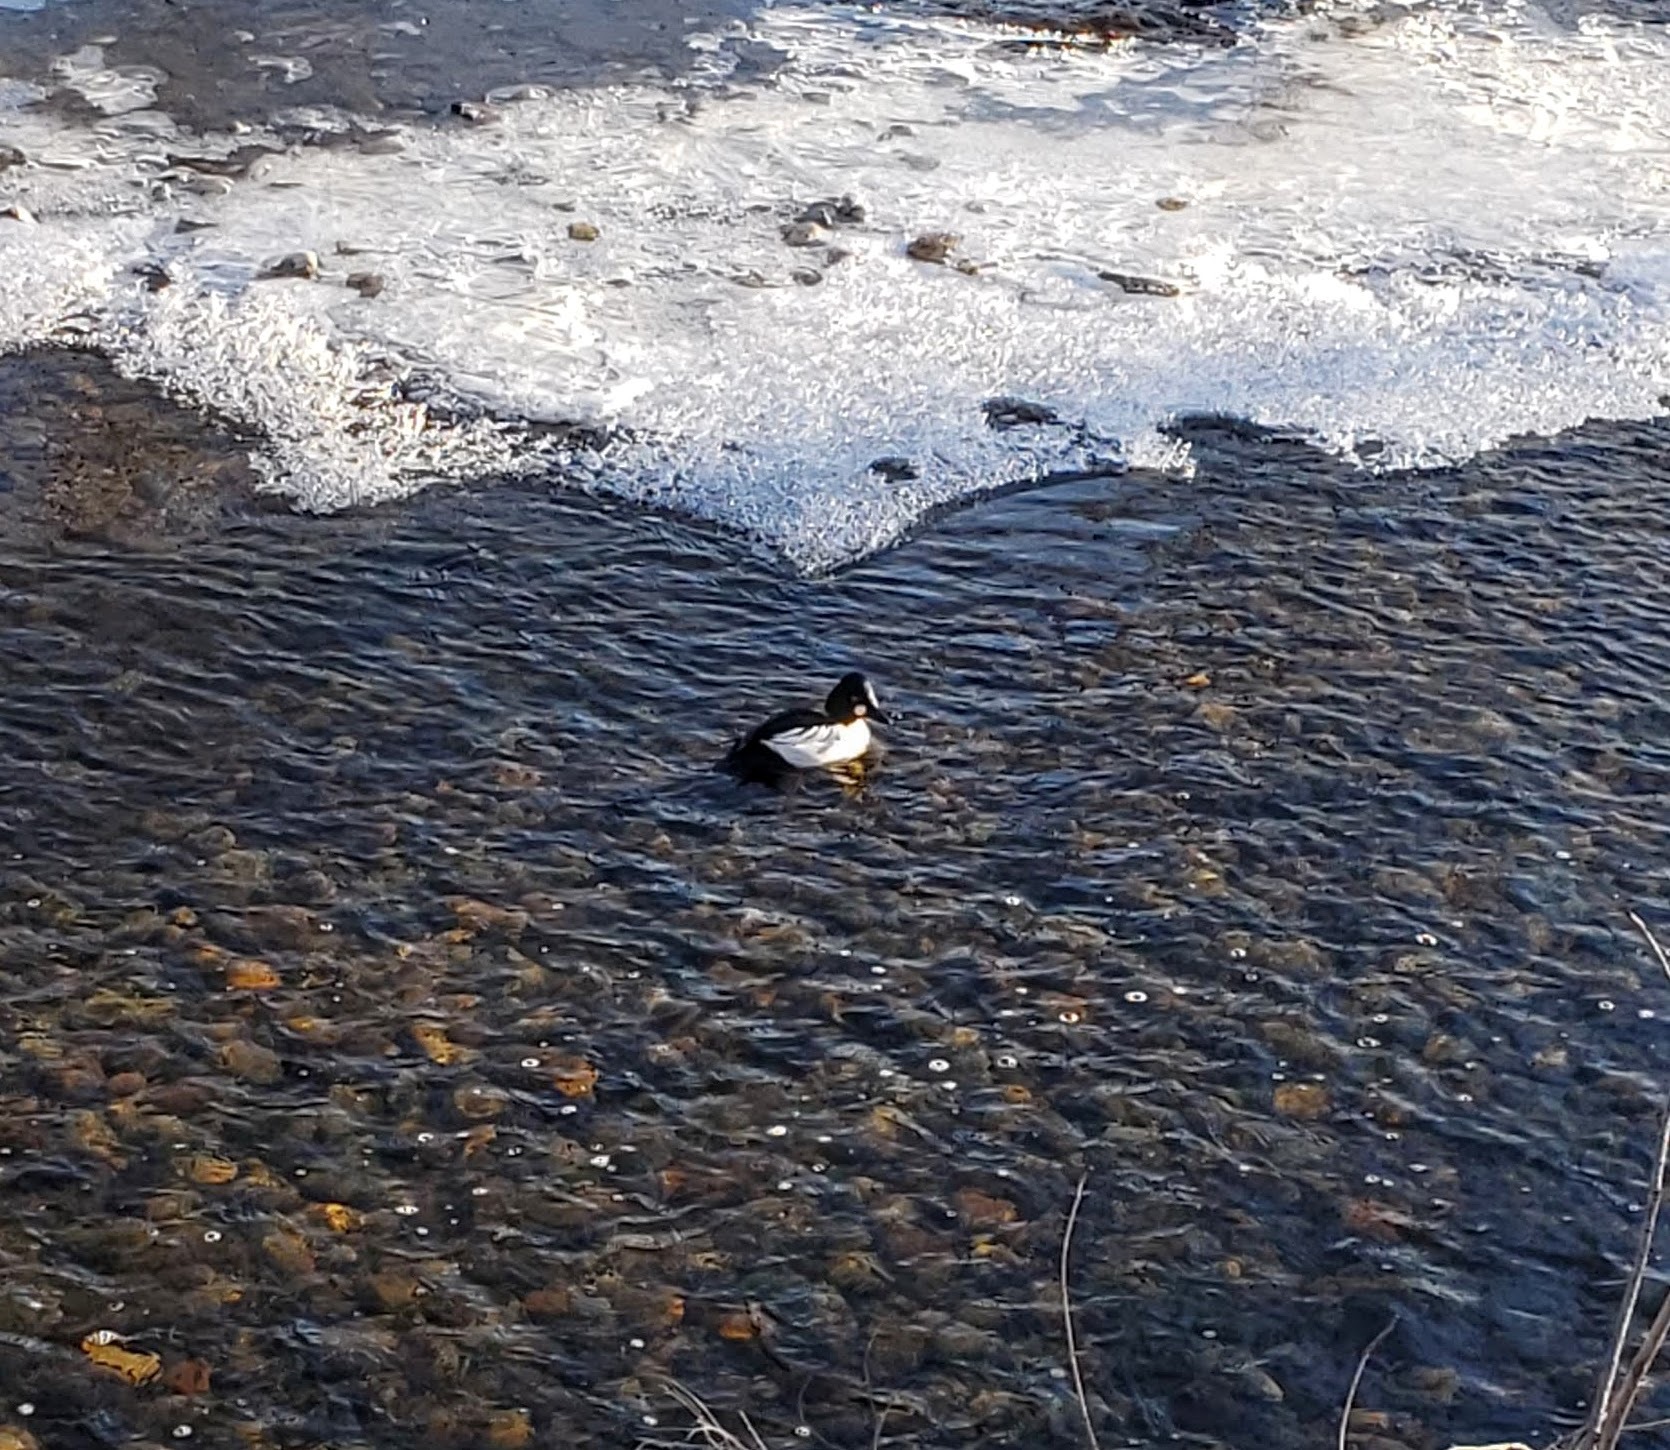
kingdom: Animalia
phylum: Chordata
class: Aves
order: Anseriformes
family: Anatidae
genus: Bucephala
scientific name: Bucephala clangula
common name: Common goldeneye
